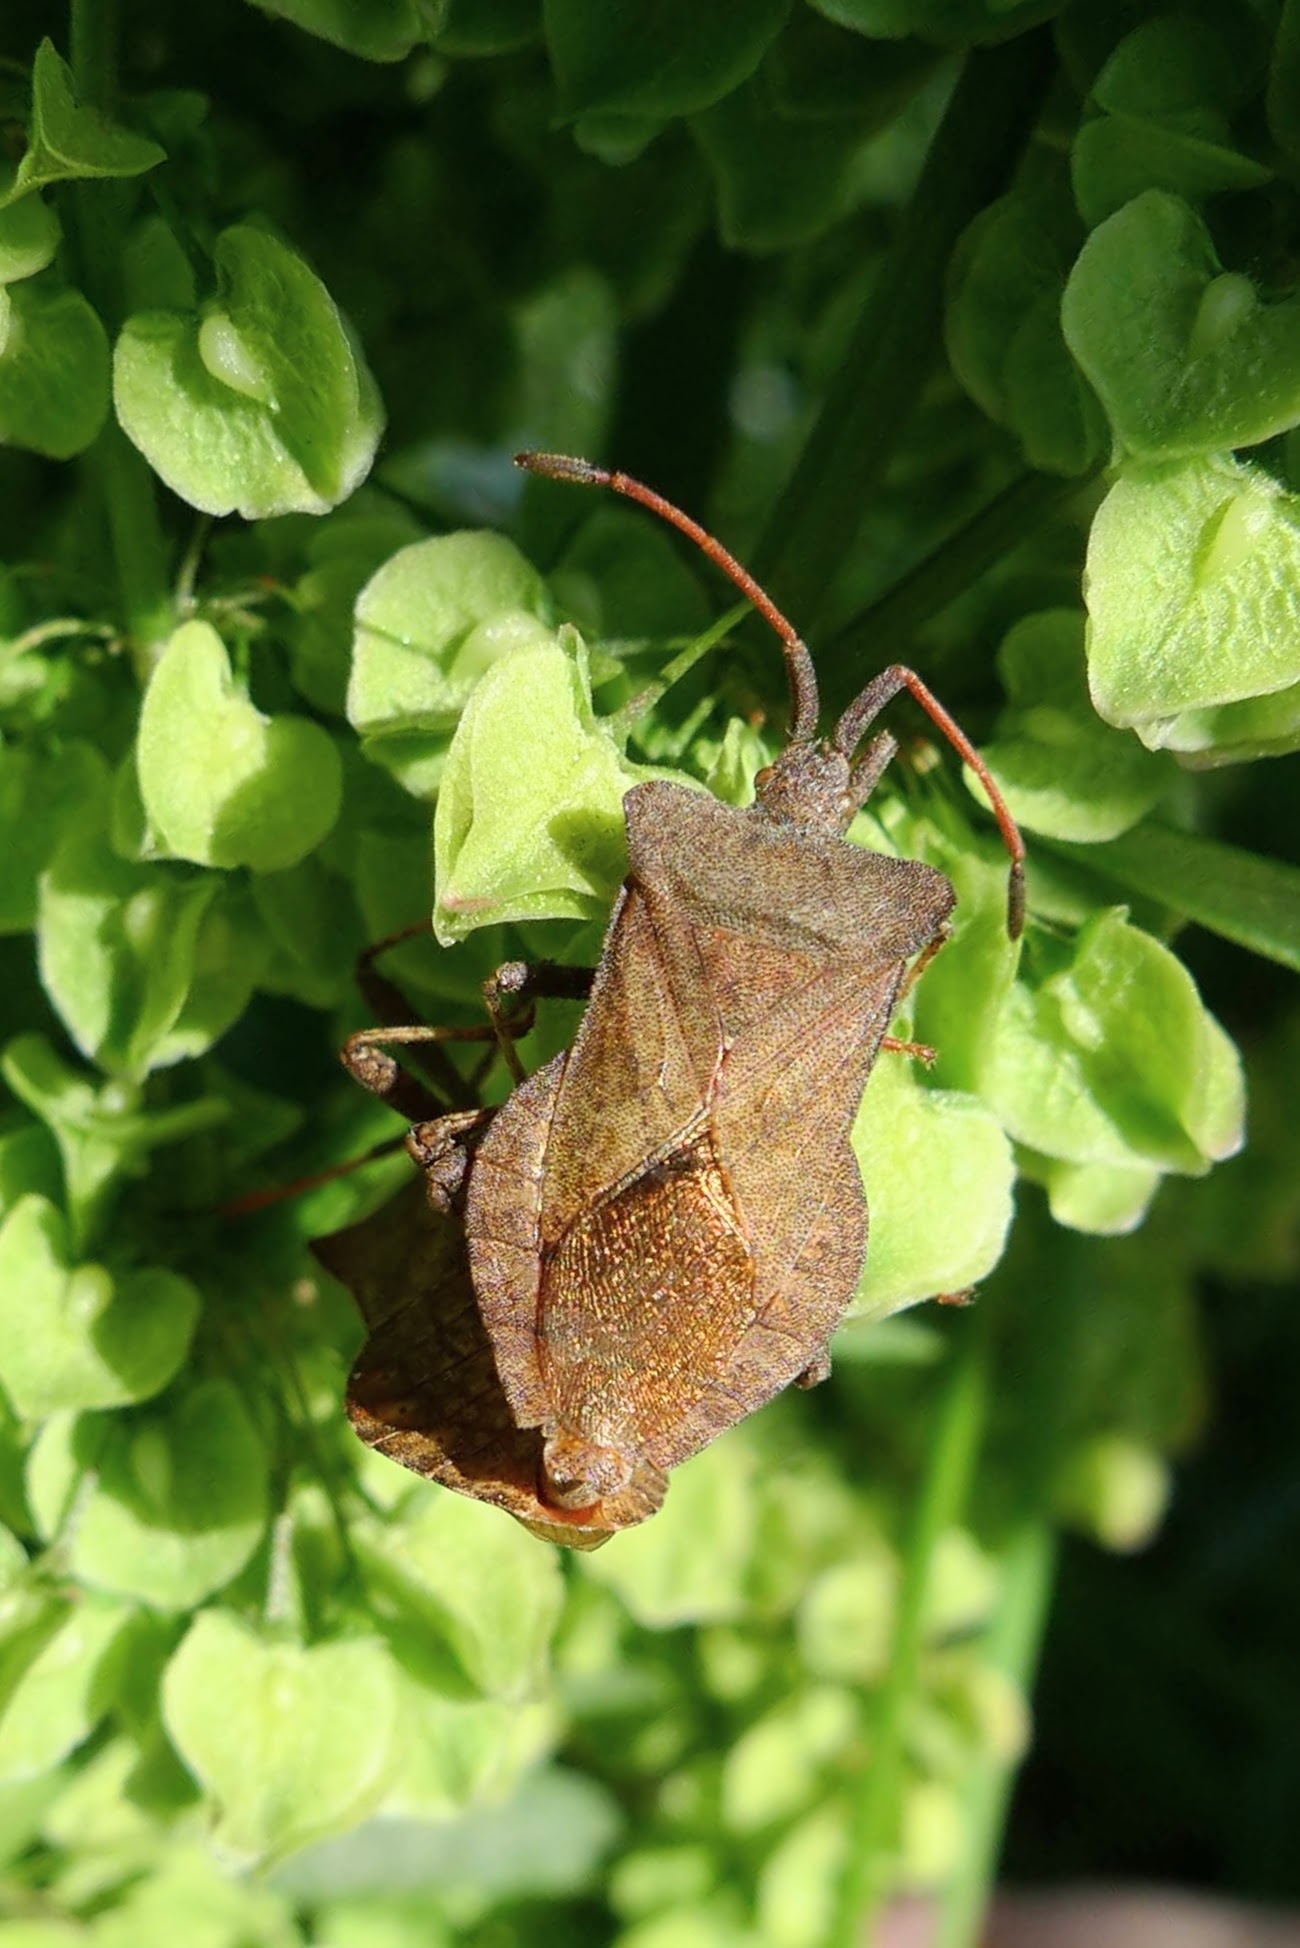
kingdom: Animalia
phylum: Arthropoda
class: Insecta
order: Hemiptera
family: Coreidae
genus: Coreus
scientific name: Coreus marginatus
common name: Dock bug
